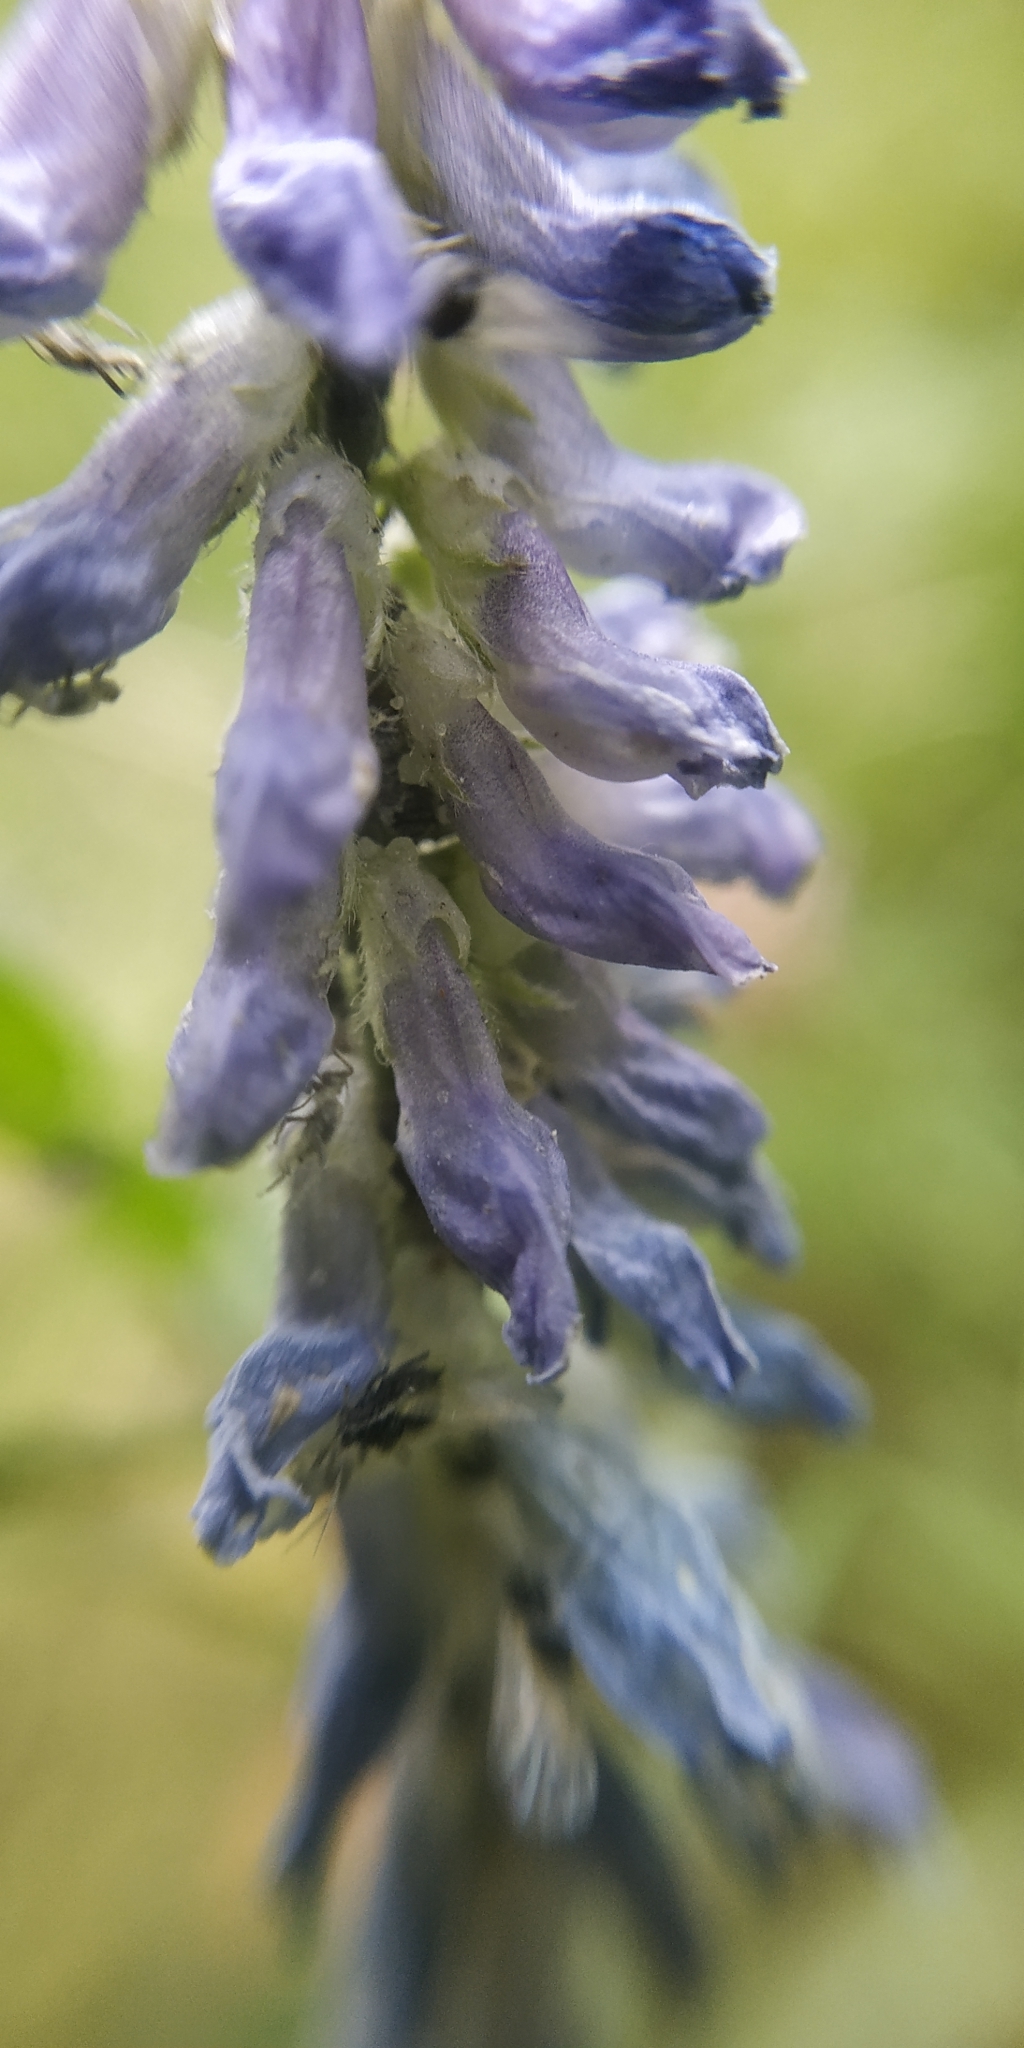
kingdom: Plantae
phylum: Tracheophyta
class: Magnoliopsida
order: Fabales
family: Fabaceae
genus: Vicia
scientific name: Vicia cracca
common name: Bird vetch
